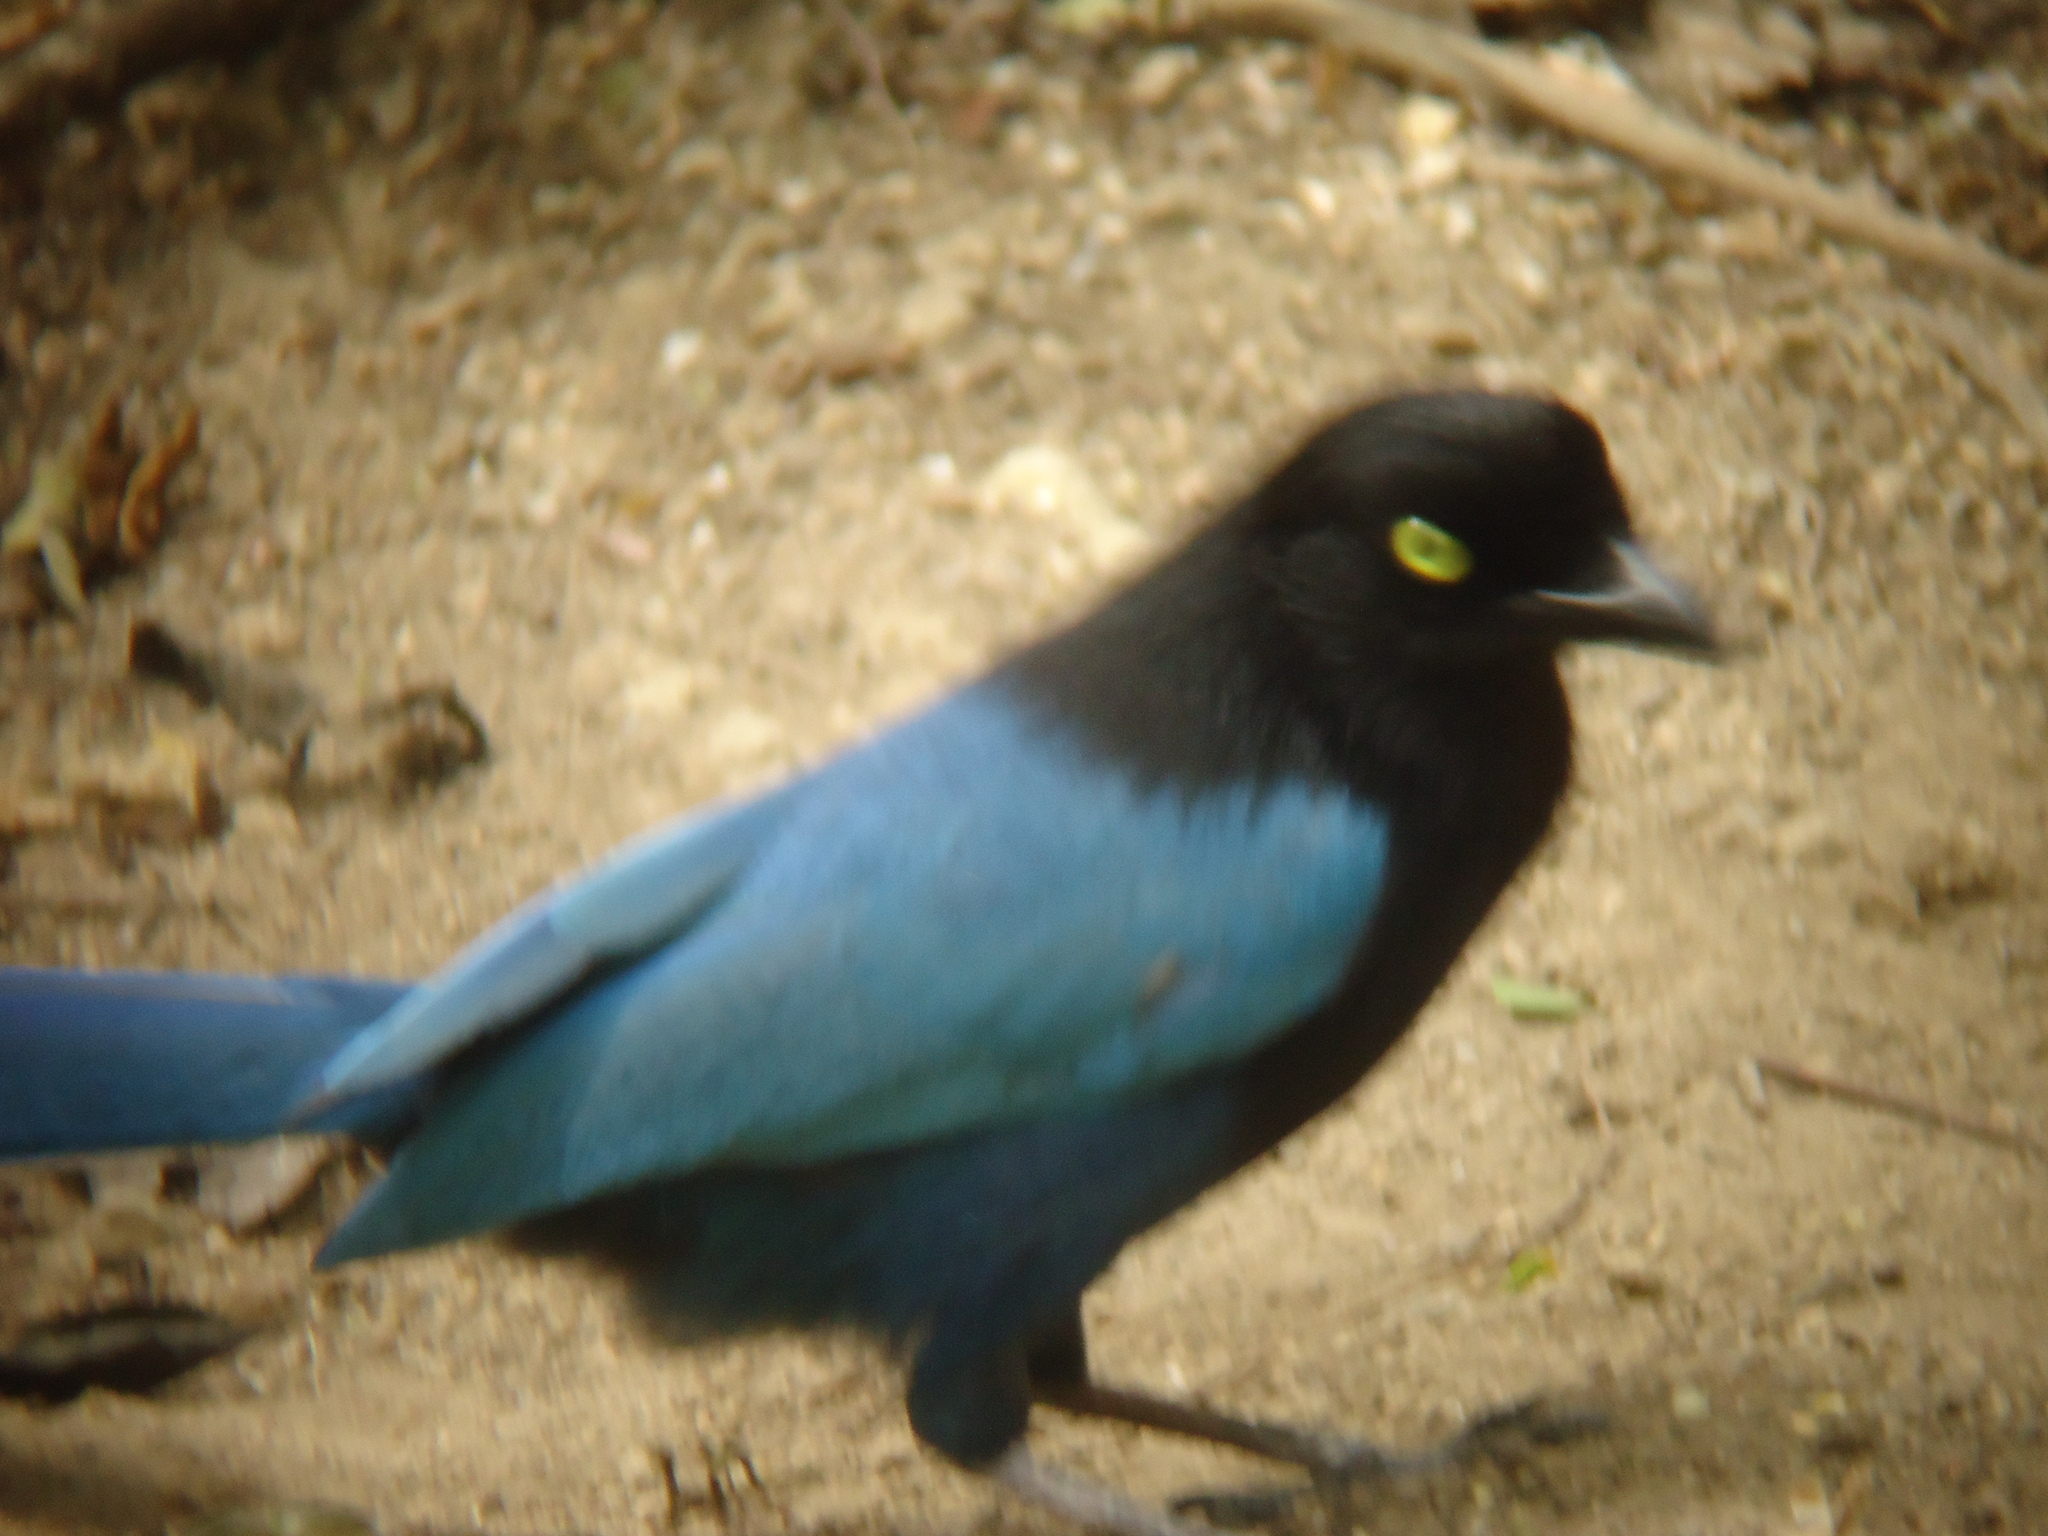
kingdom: Animalia
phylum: Chordata
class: Aves
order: Passeriformes
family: Corvidae
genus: Cyanocorax
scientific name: Cyanocorax melanocyaneus
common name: Bushy-crested jay
